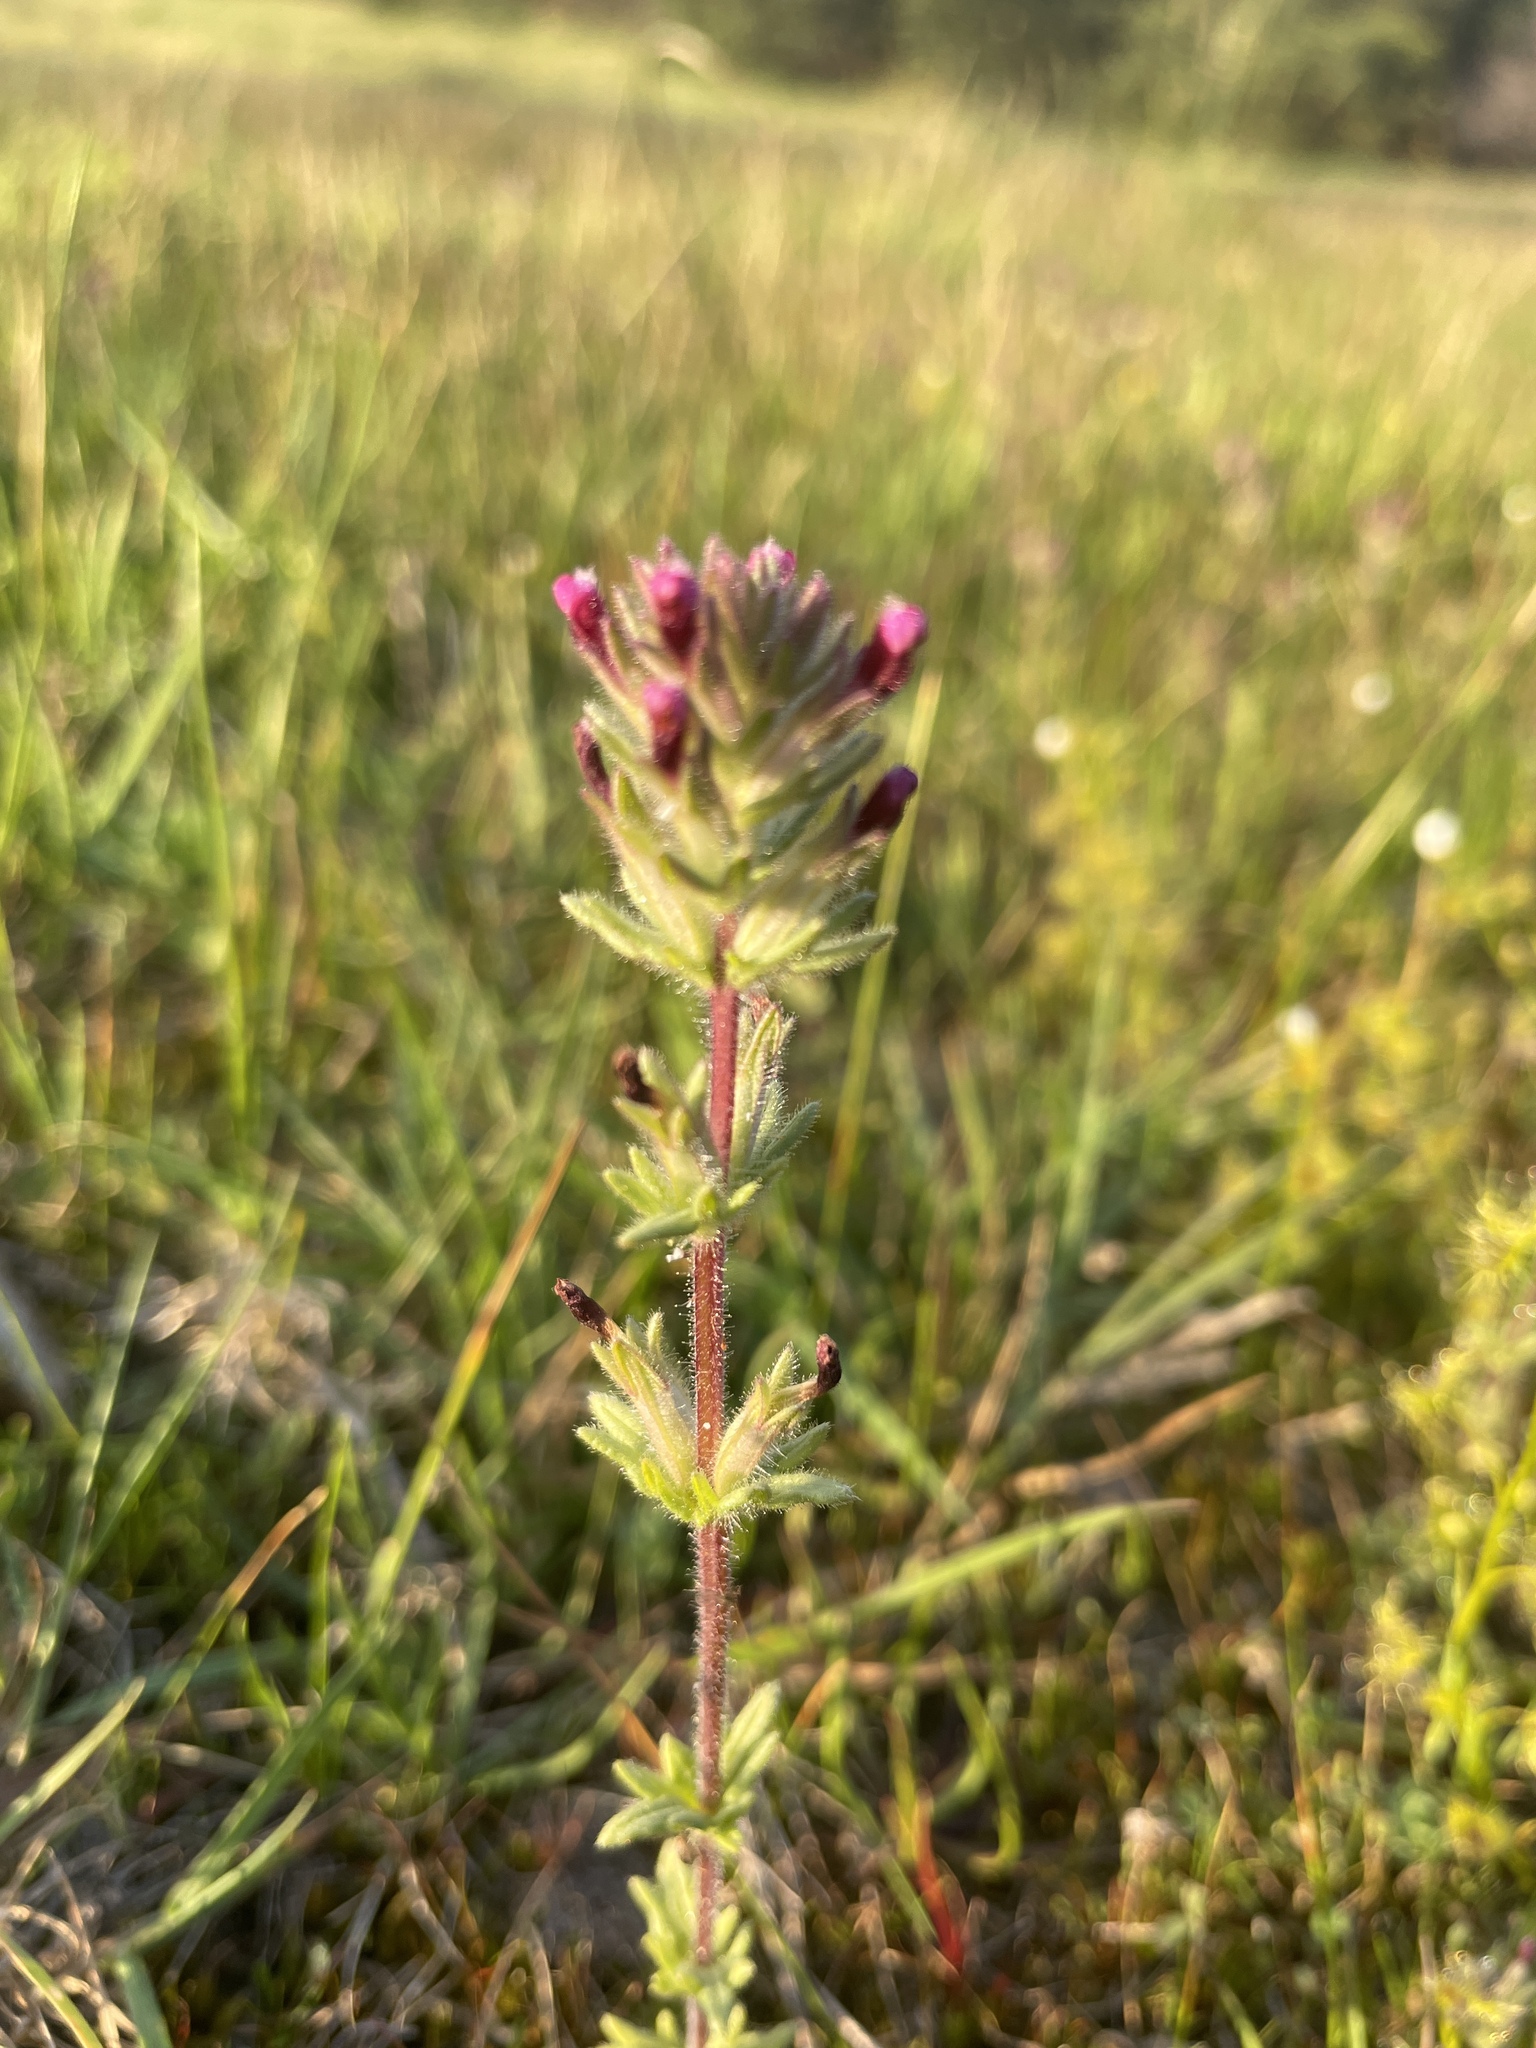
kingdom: Plantae
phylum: Tracheophyta
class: Magnoliopsida
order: Lamiales
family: Orobanchaceae
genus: Parentucellia
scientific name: Parentucellia latifolia
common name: Broadleaf glandweed
